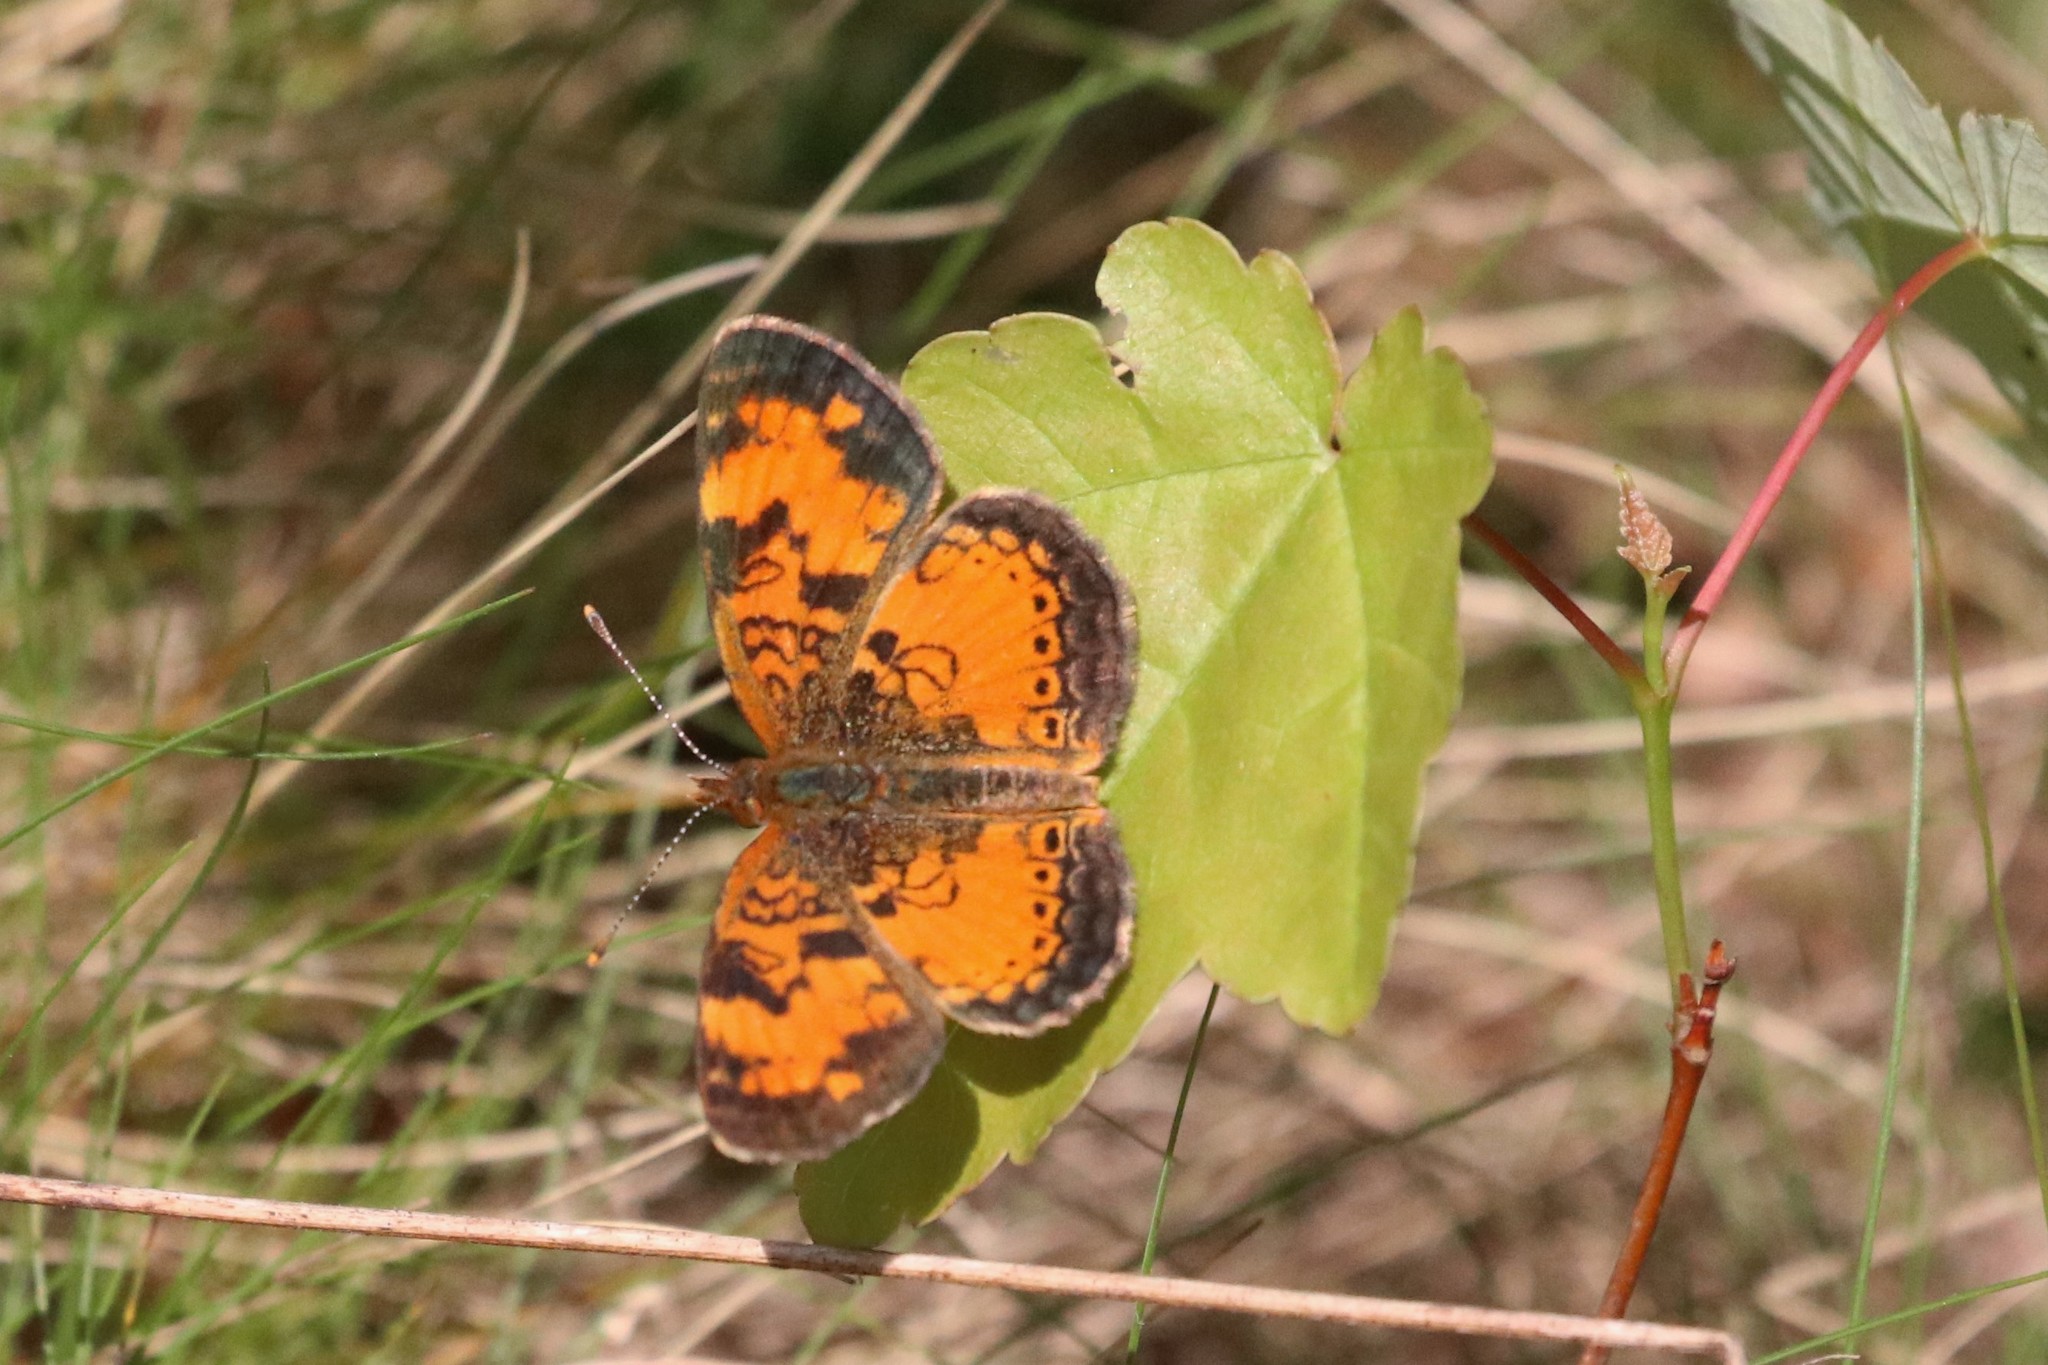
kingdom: Animalia
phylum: Arthropoda
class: Insecta
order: Lepidoptera
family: Nymphalidae
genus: Phyciodes
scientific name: Phyciodes tharos
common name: Pearl crescent
